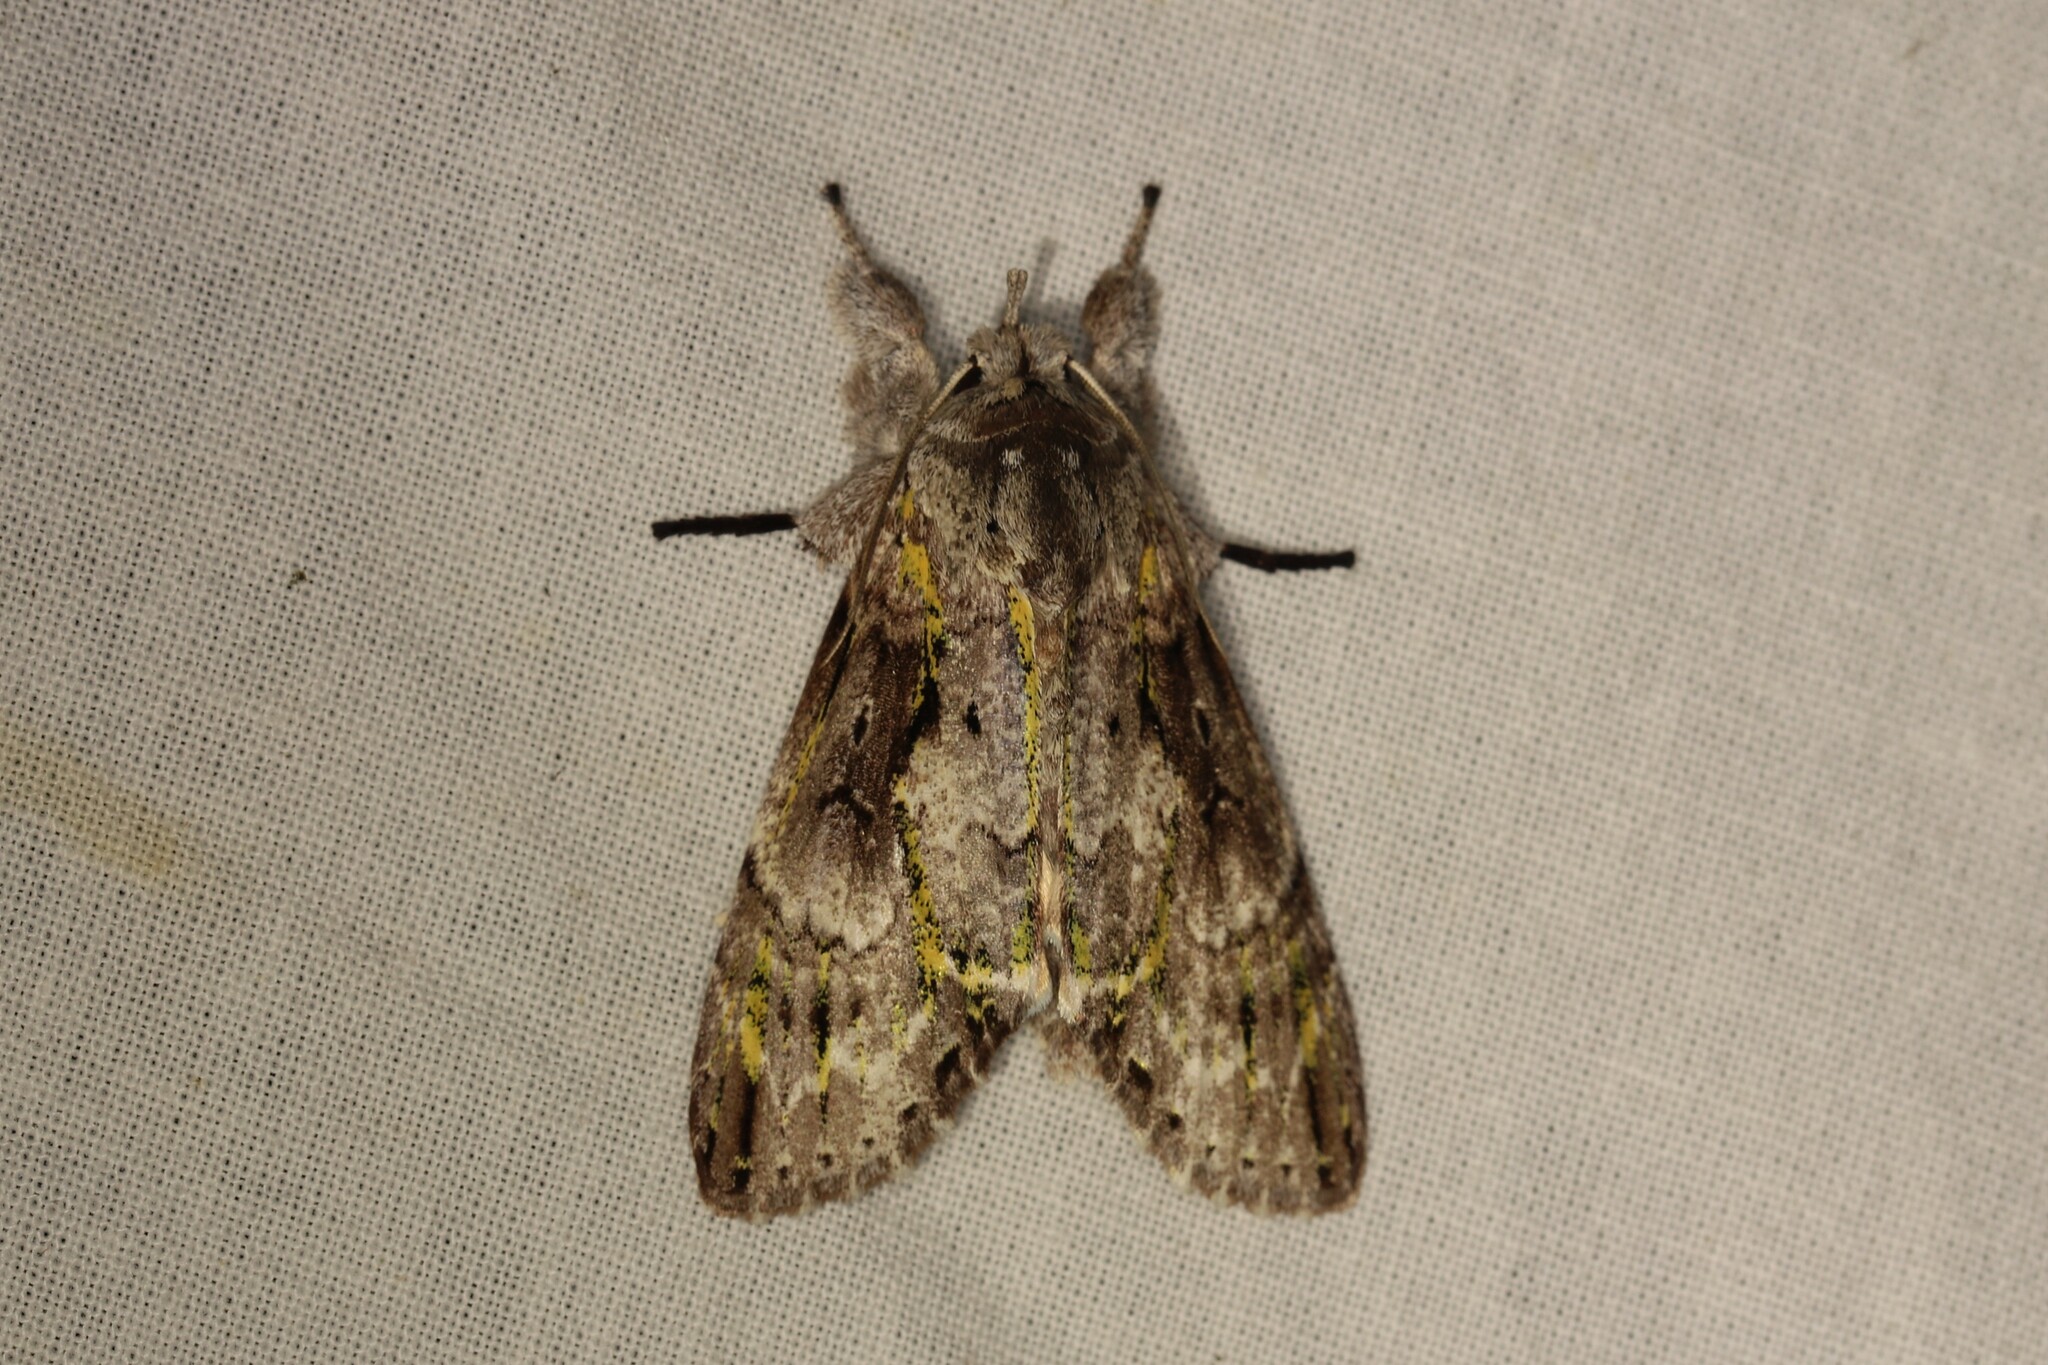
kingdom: Animalia
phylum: Arthropoda
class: Insecta
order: Lepidoptera
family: Nolidae
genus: Iscadia
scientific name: Iscadia chlorographa
